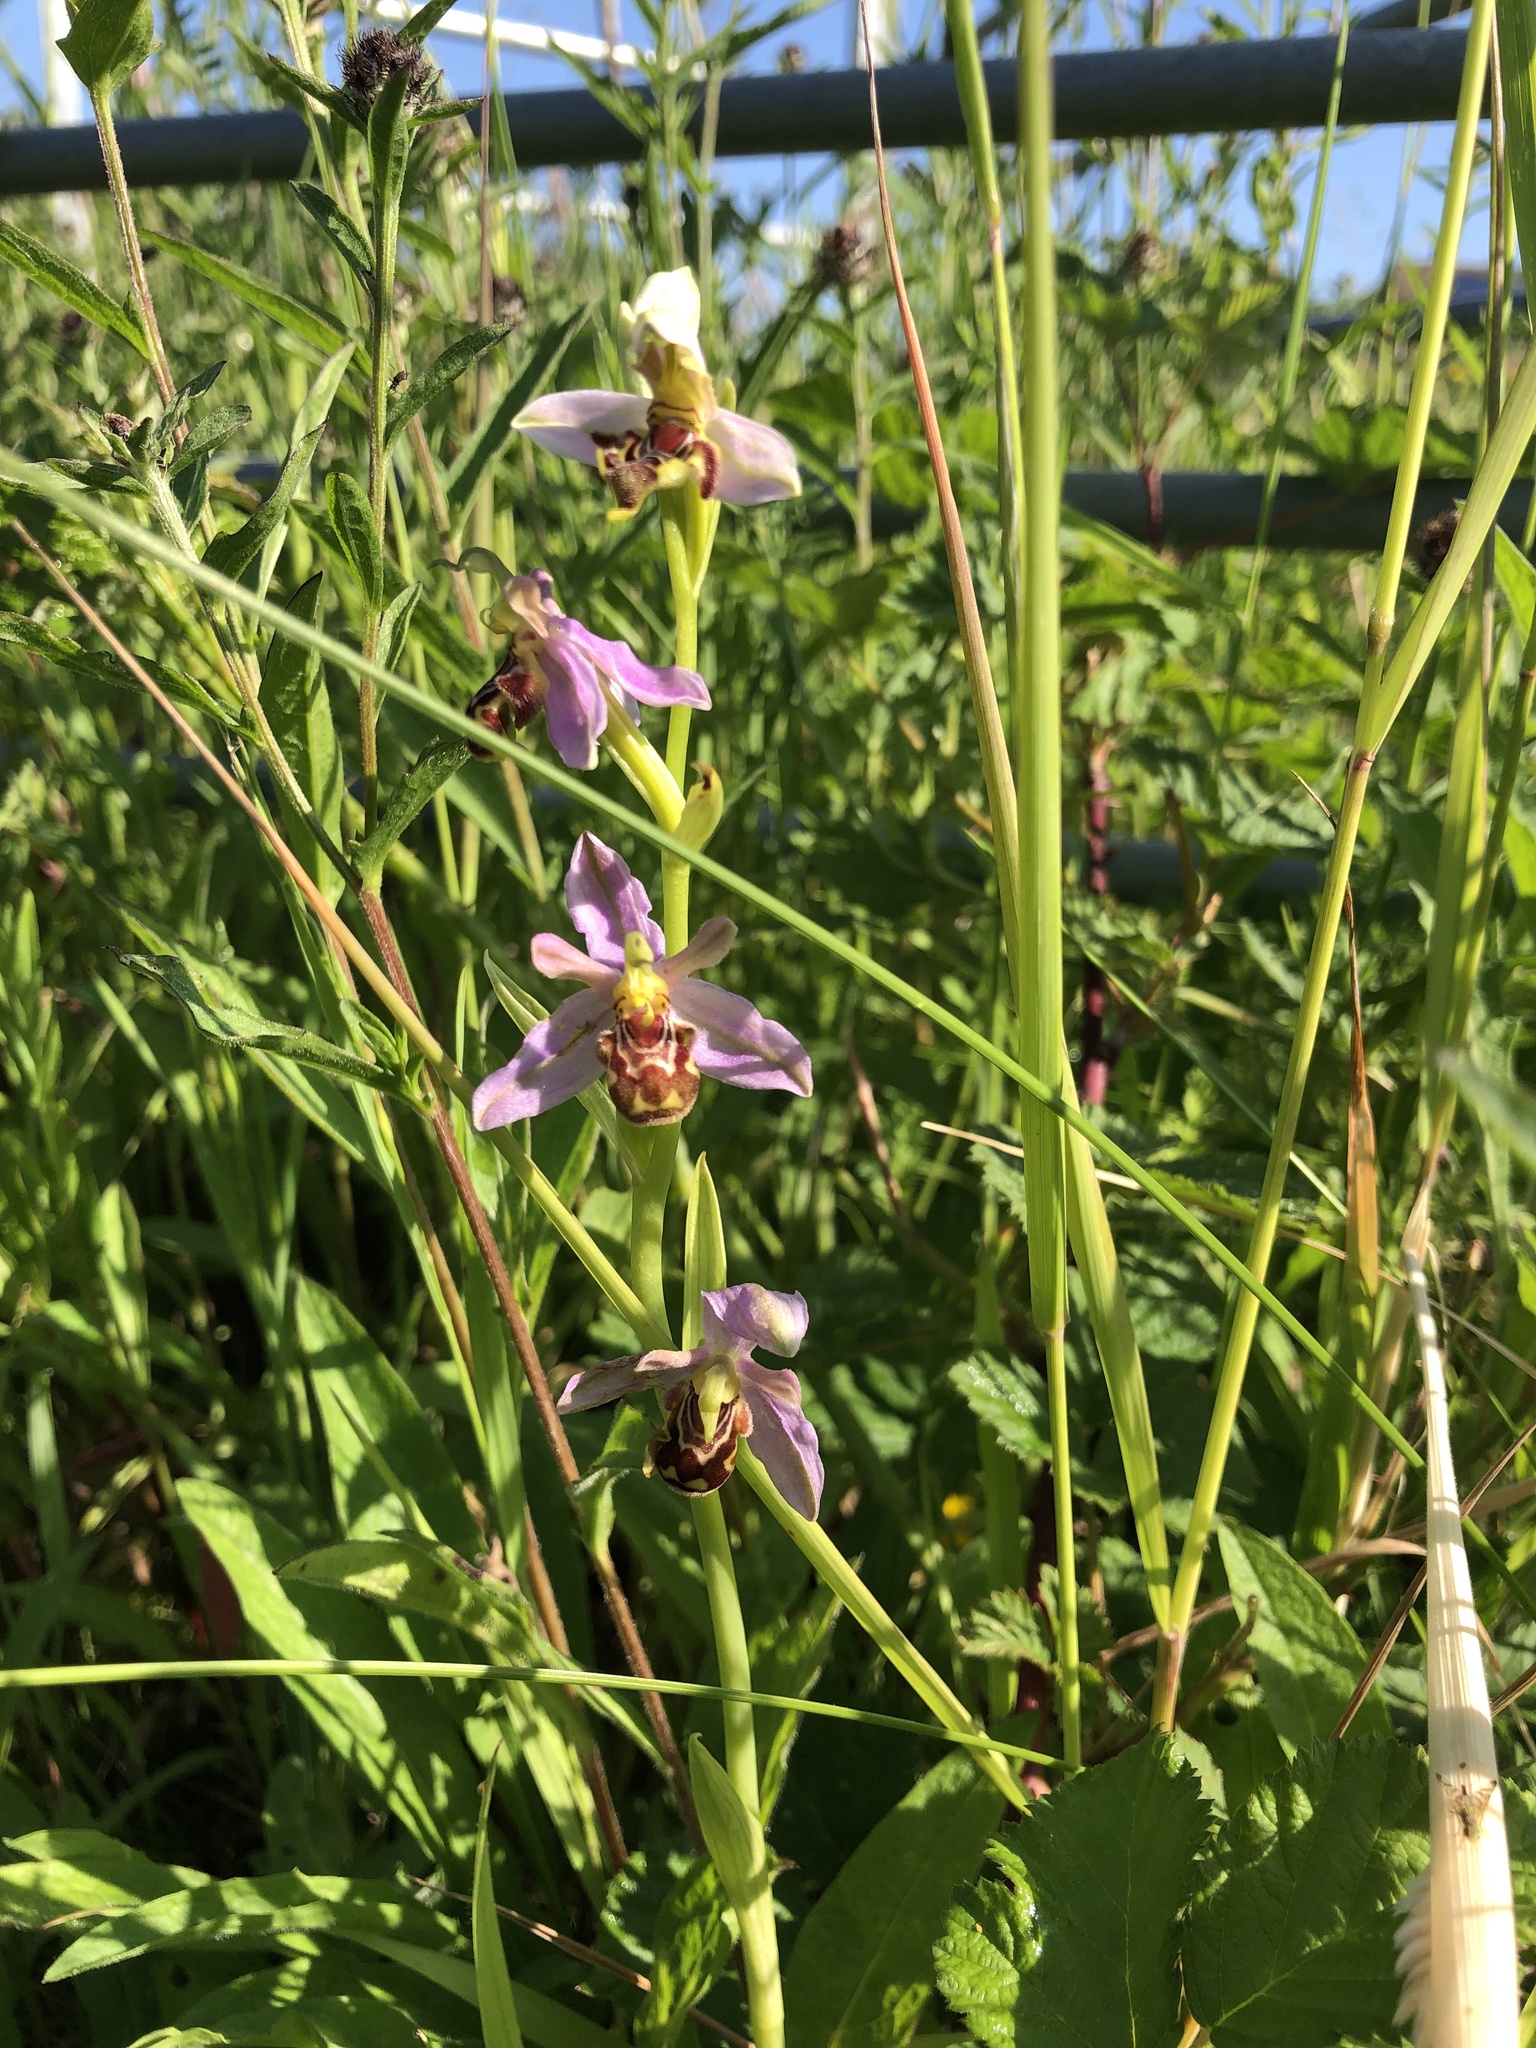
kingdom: Plantae
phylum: Tracheophyta
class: Liliopsida
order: Asparagales
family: Orchidaceae
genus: Ophrys
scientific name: Ophrys apifera
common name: Bee orchid
